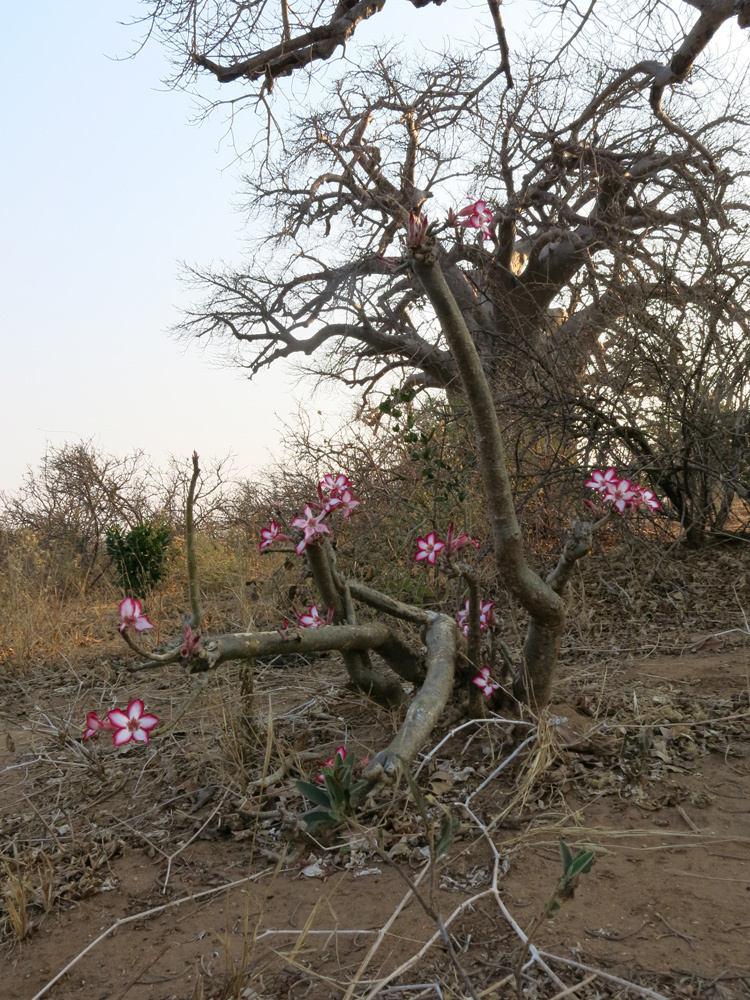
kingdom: Plantae
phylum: Tracheophyta
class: Magnoliopsida
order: Gentianales
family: Apocynaceae
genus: Adenium
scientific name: Adenium obesum
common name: Desert-rose
